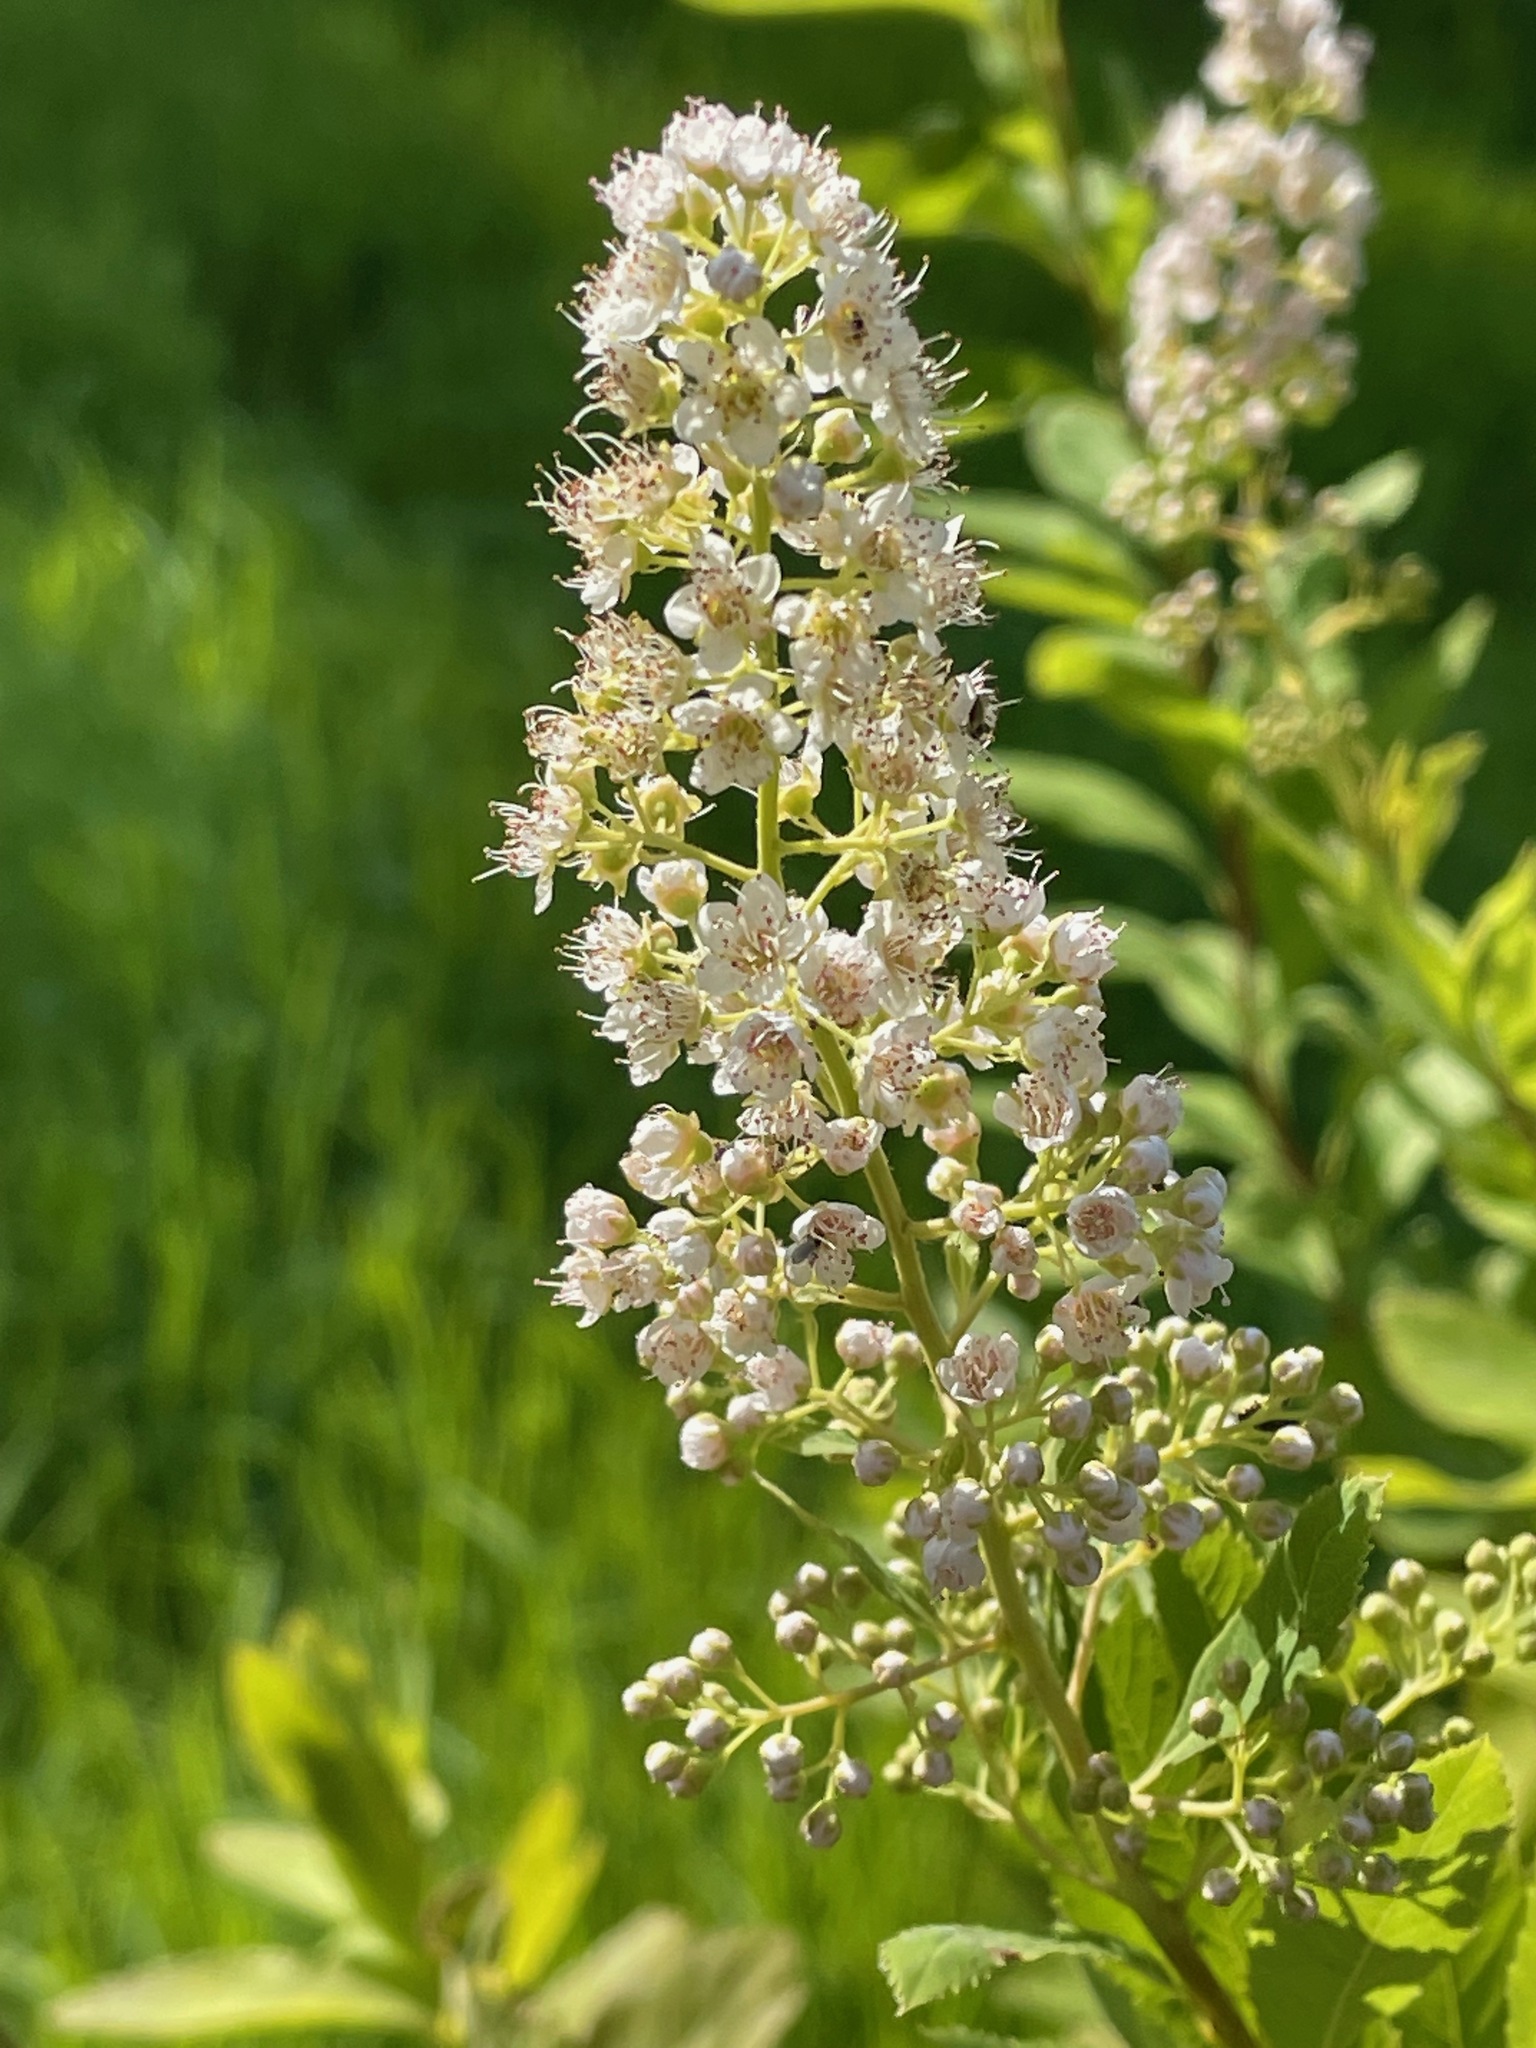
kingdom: Plantae
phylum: Tracheophyta
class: Magnoliopsida
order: Rosales
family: Rosaceae
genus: Spiraea
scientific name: Spiraea alba
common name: Pale bridewort
